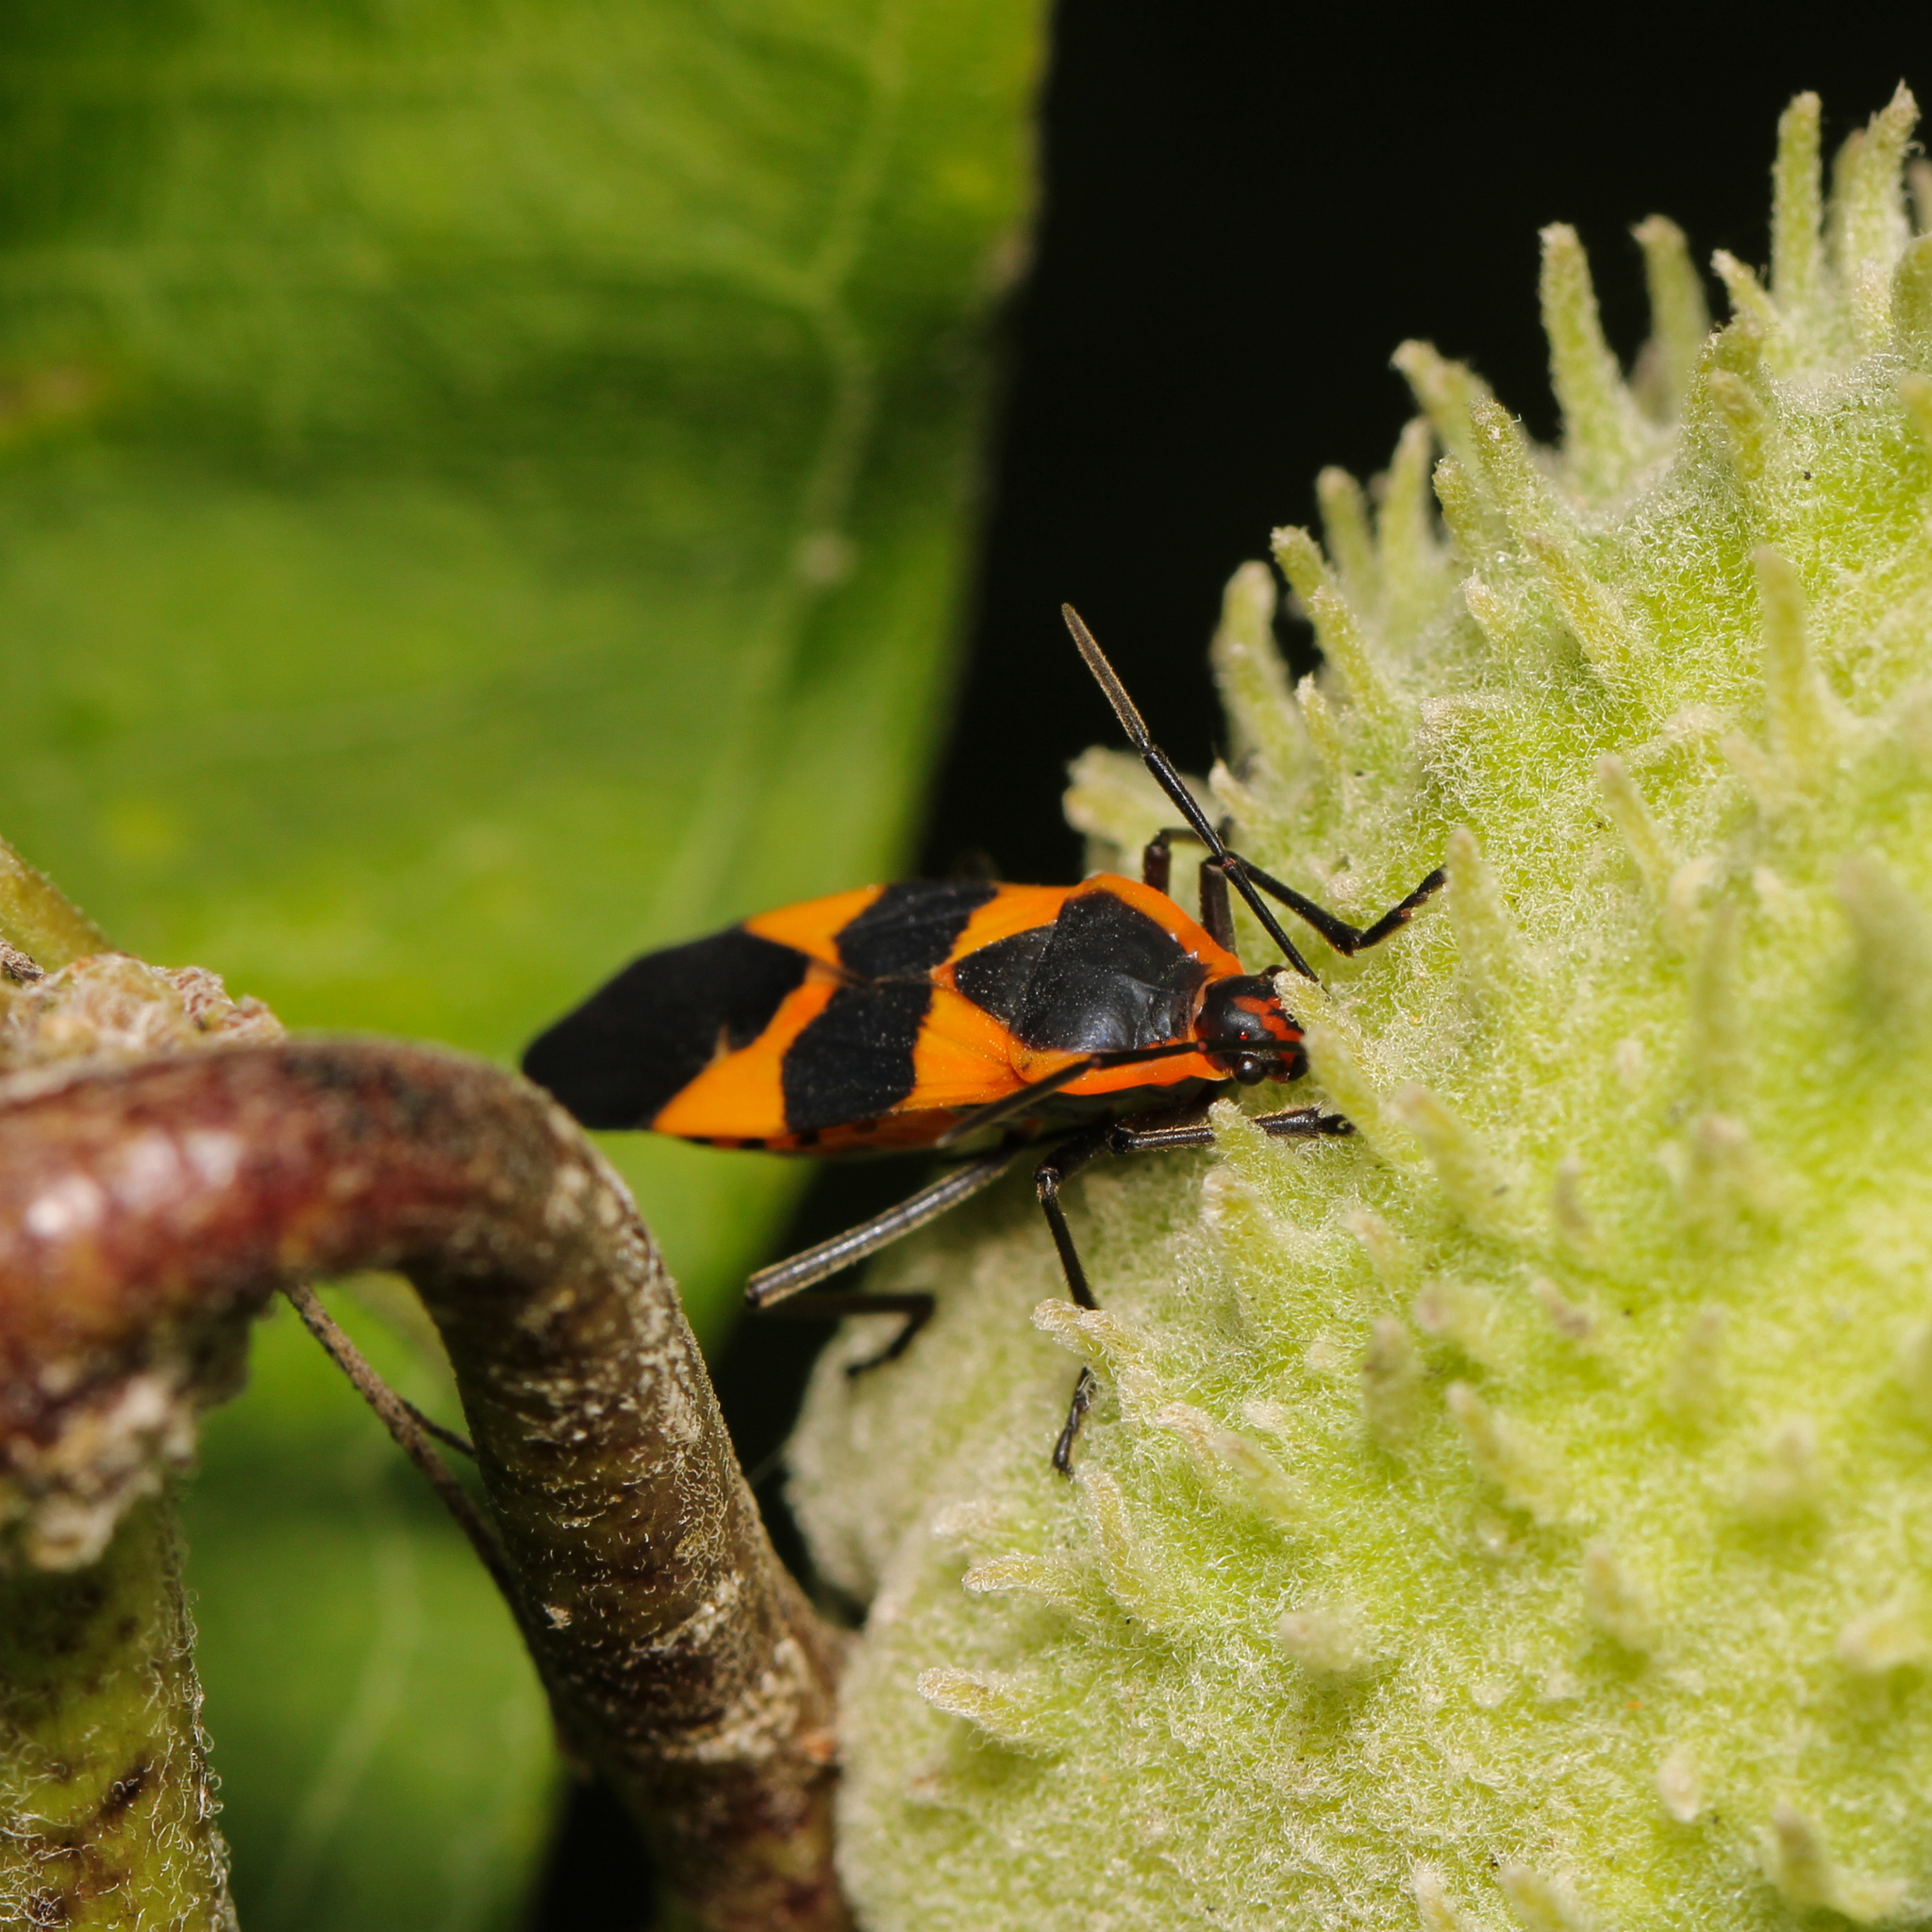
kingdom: Animalia
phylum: Arthropoda
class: Insecta
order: Hemiptera
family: Lygaeidae
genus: Oncopeltus
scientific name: Oncopeltus fasciatus
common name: Large milkweed bug
